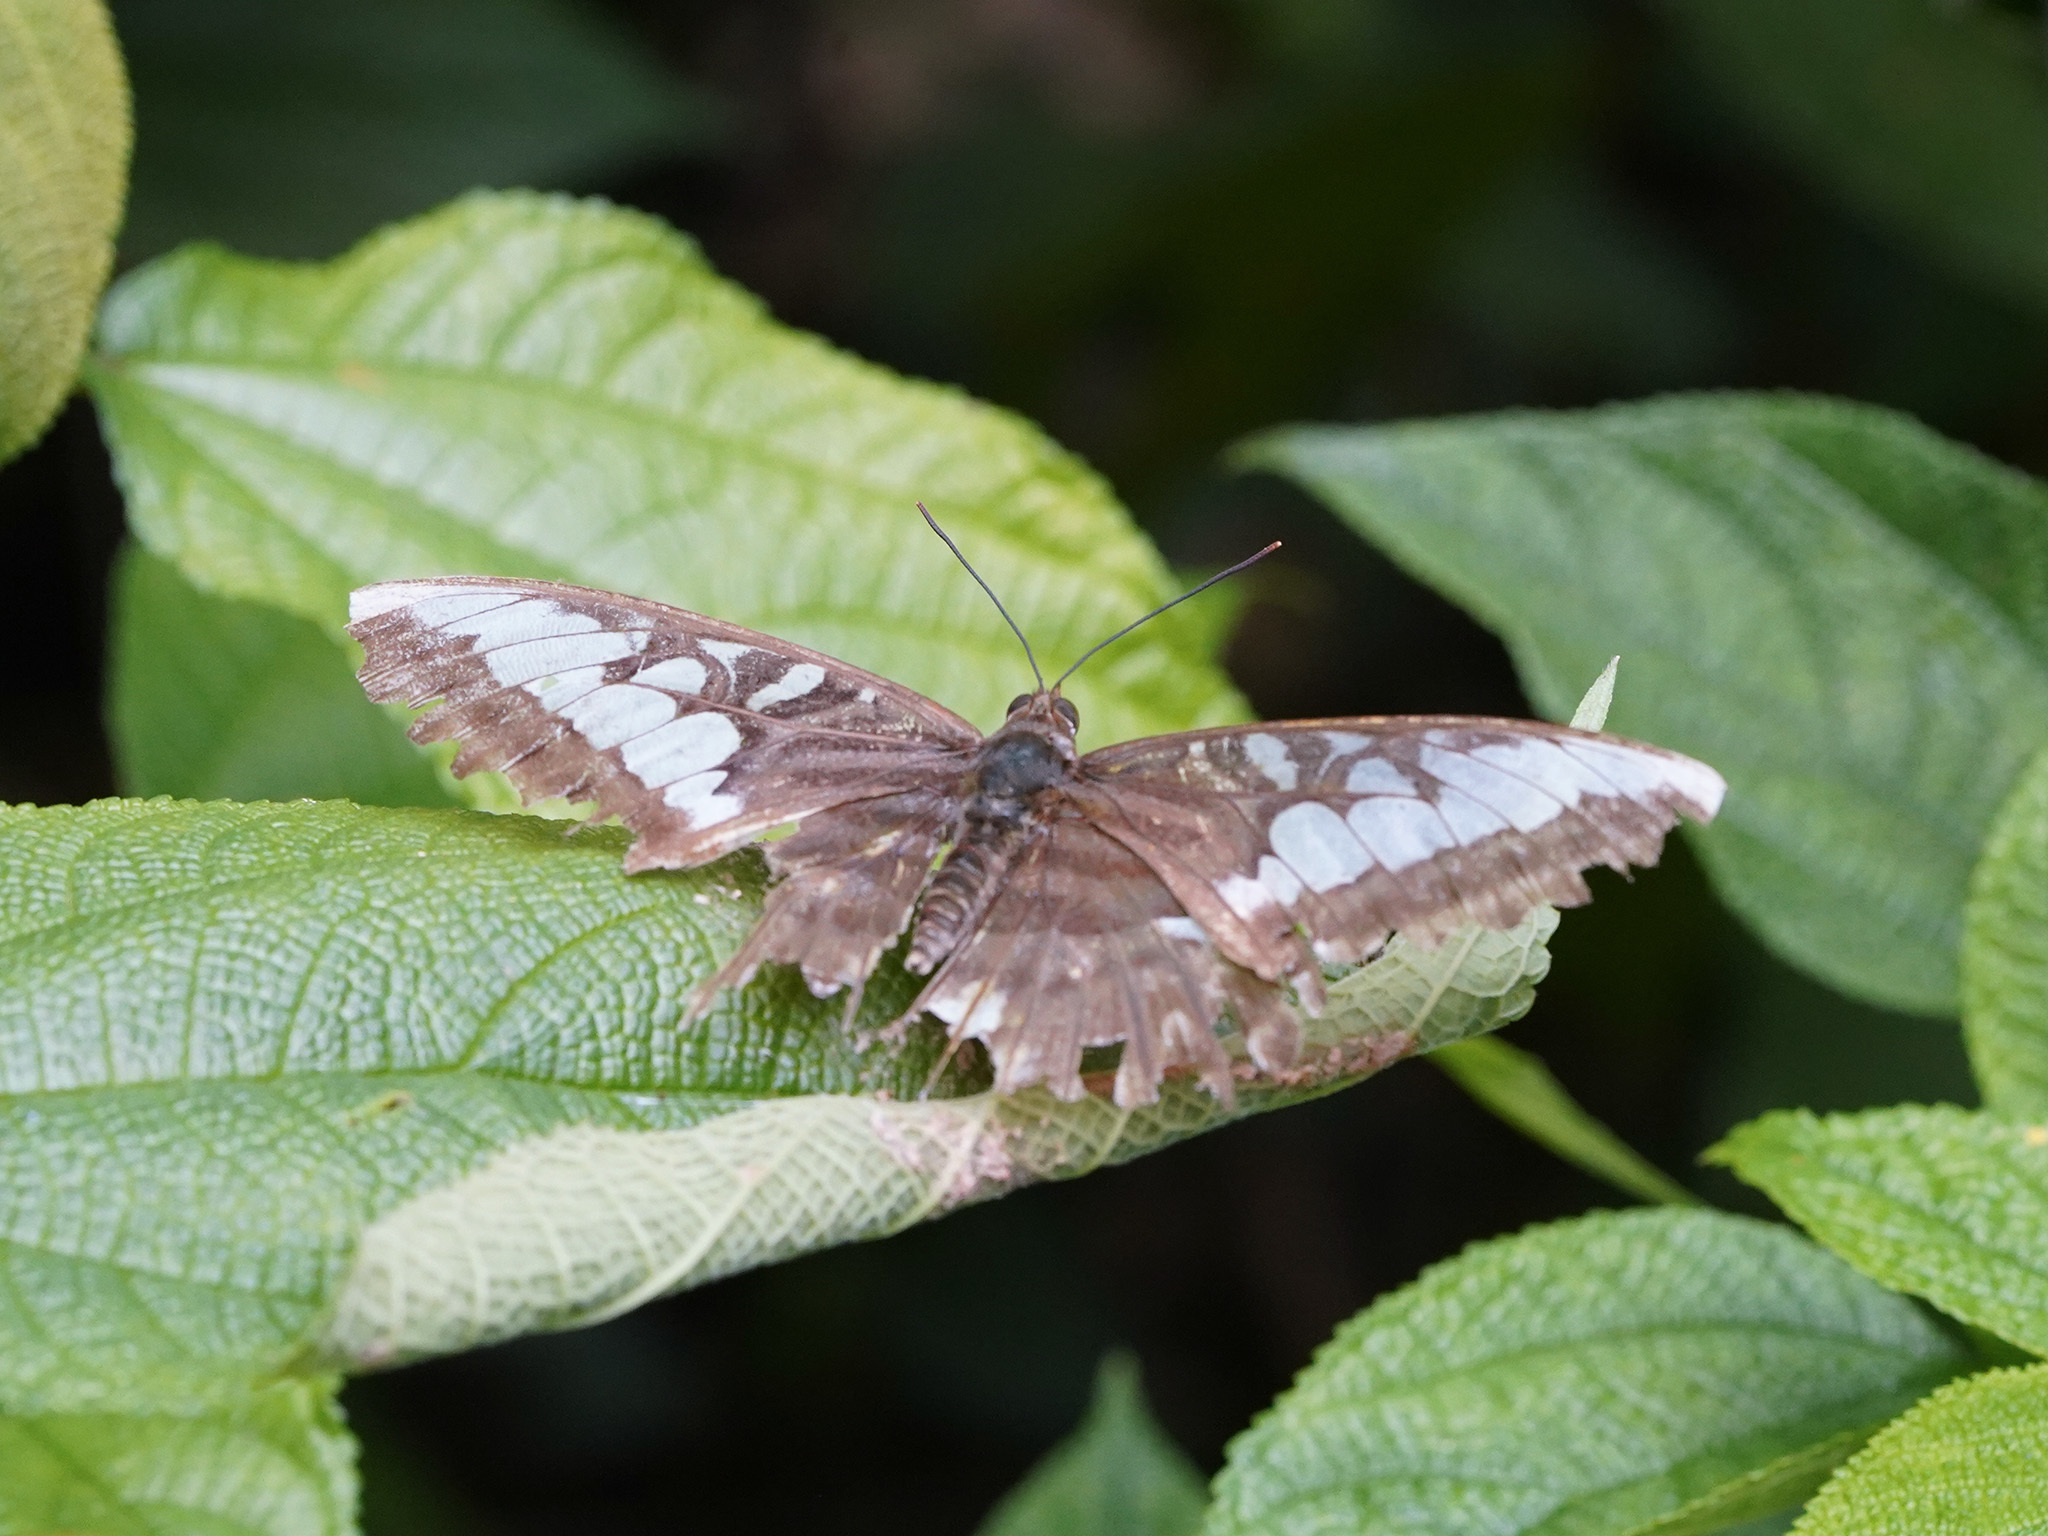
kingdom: Animalia
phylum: Arthropoda
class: Insecta
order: Lepidoptera
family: Nymphalidae
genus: Kallima
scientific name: Kallima sylvia
